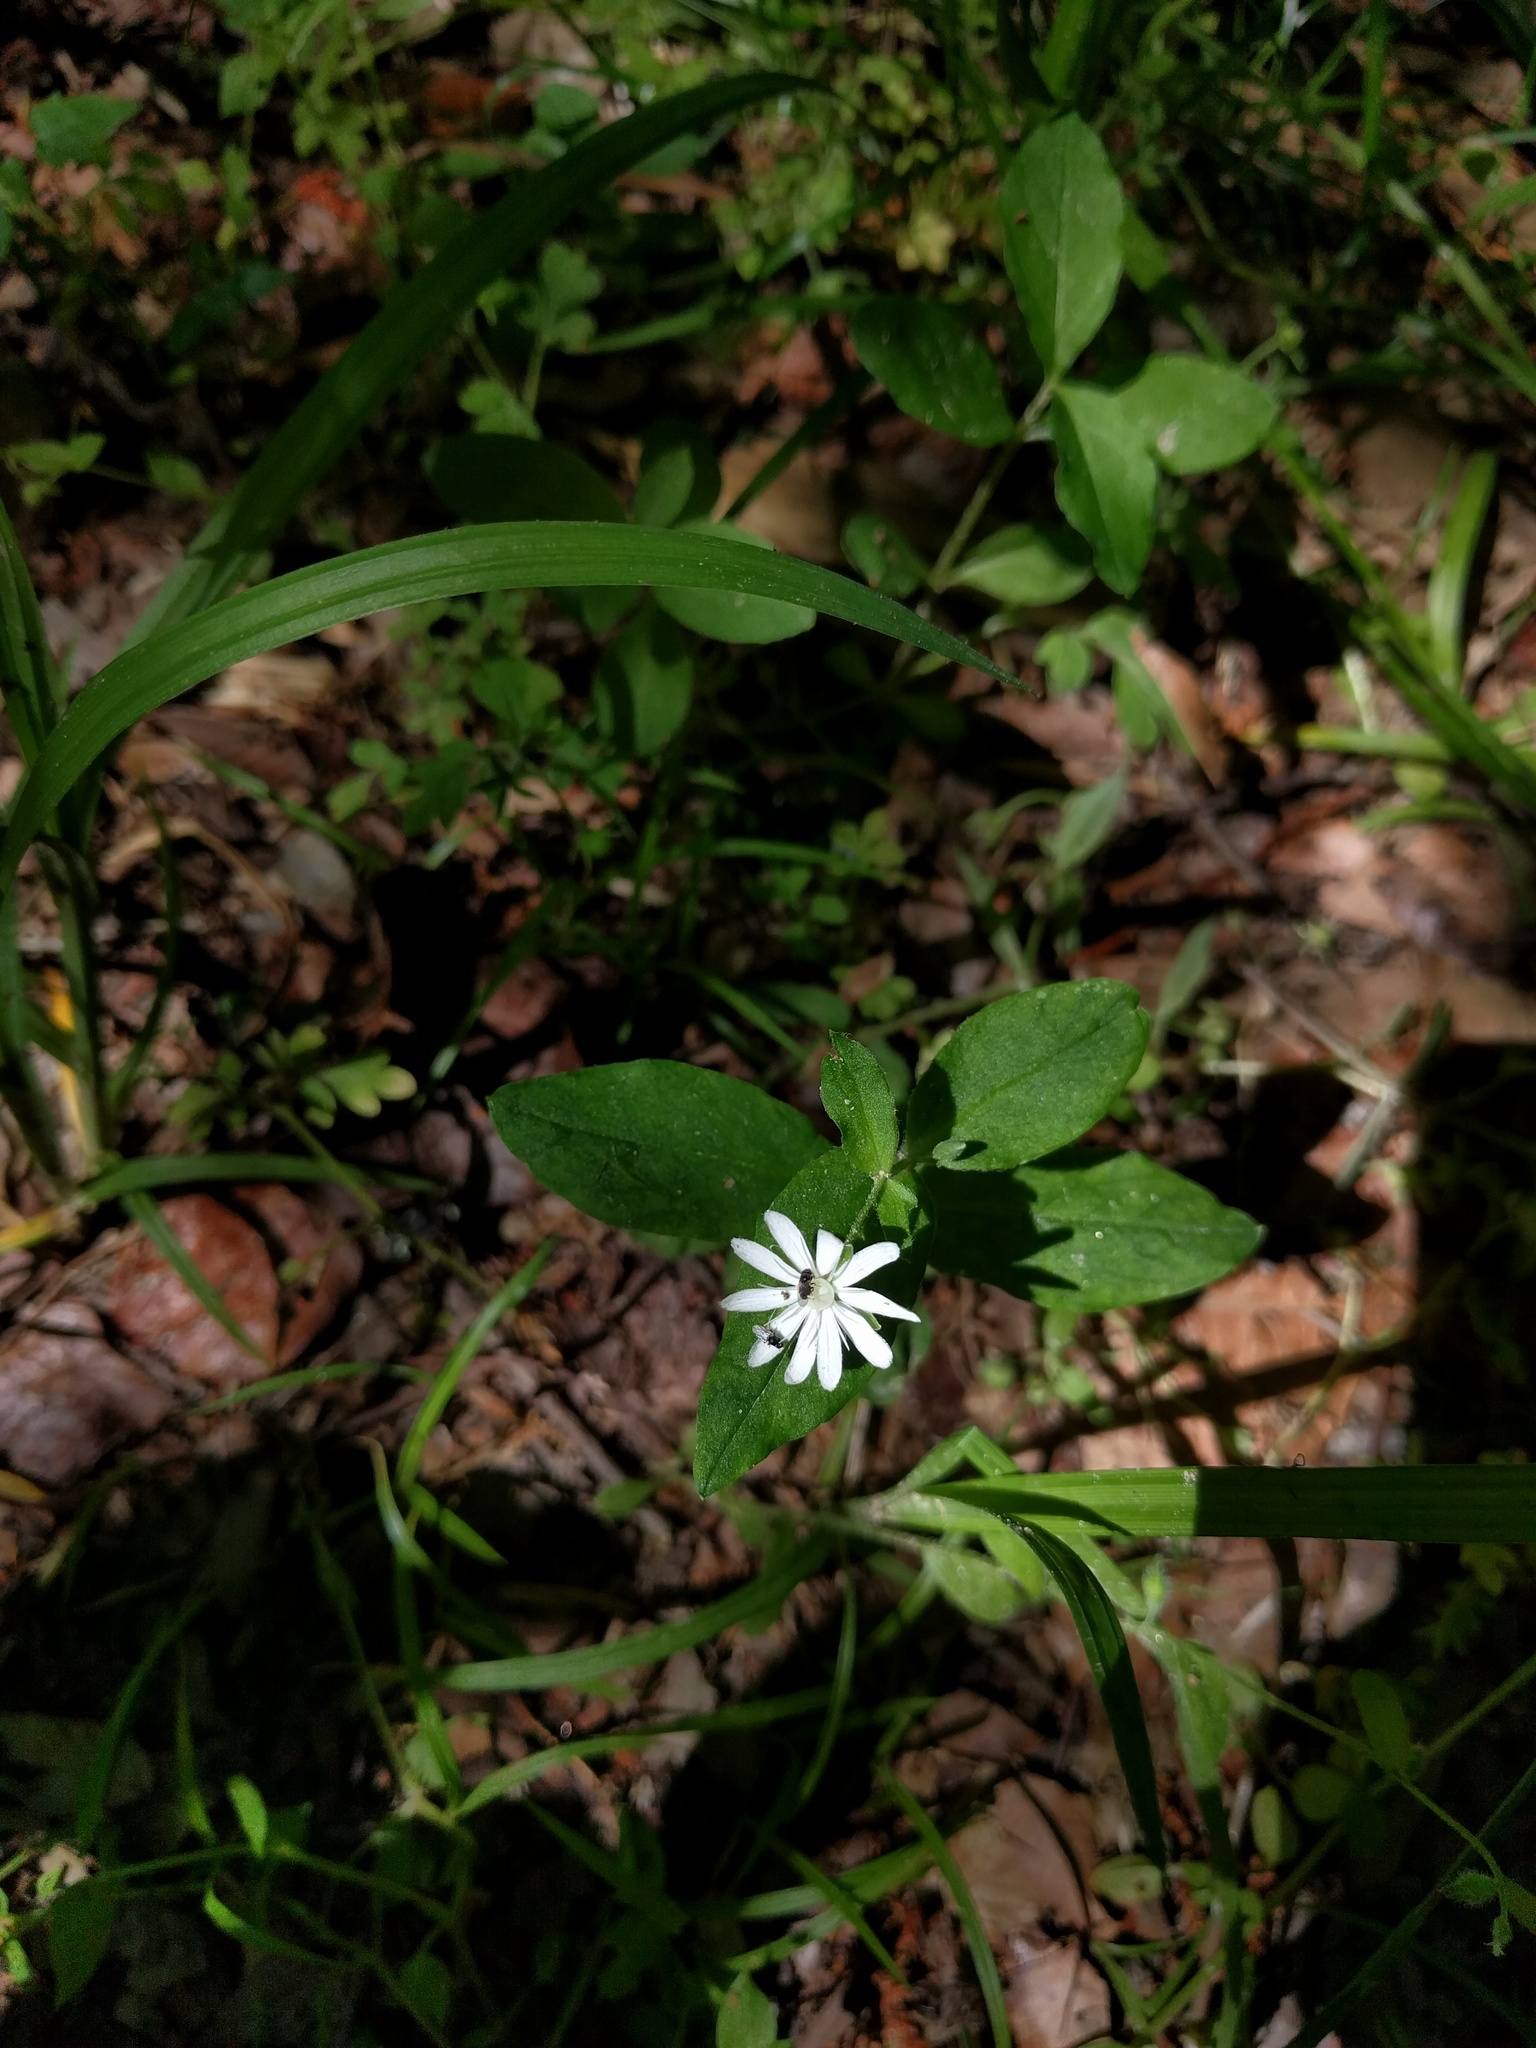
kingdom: Plantae
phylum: Tracheophyta
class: Magnoliopsida
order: Caryophyllales
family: Caryophyllaceae
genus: Stellaria
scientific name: Stellaria pubera
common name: Star chickweed
